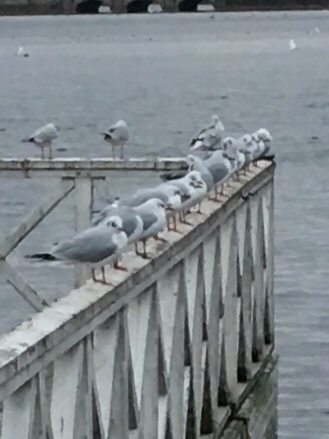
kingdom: Animalia
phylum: Chordata
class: Aves
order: Charadriiformes
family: Laridae
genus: Chroicocephalus
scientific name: Chroicocephalus ridibundus
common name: Black-headed gull
